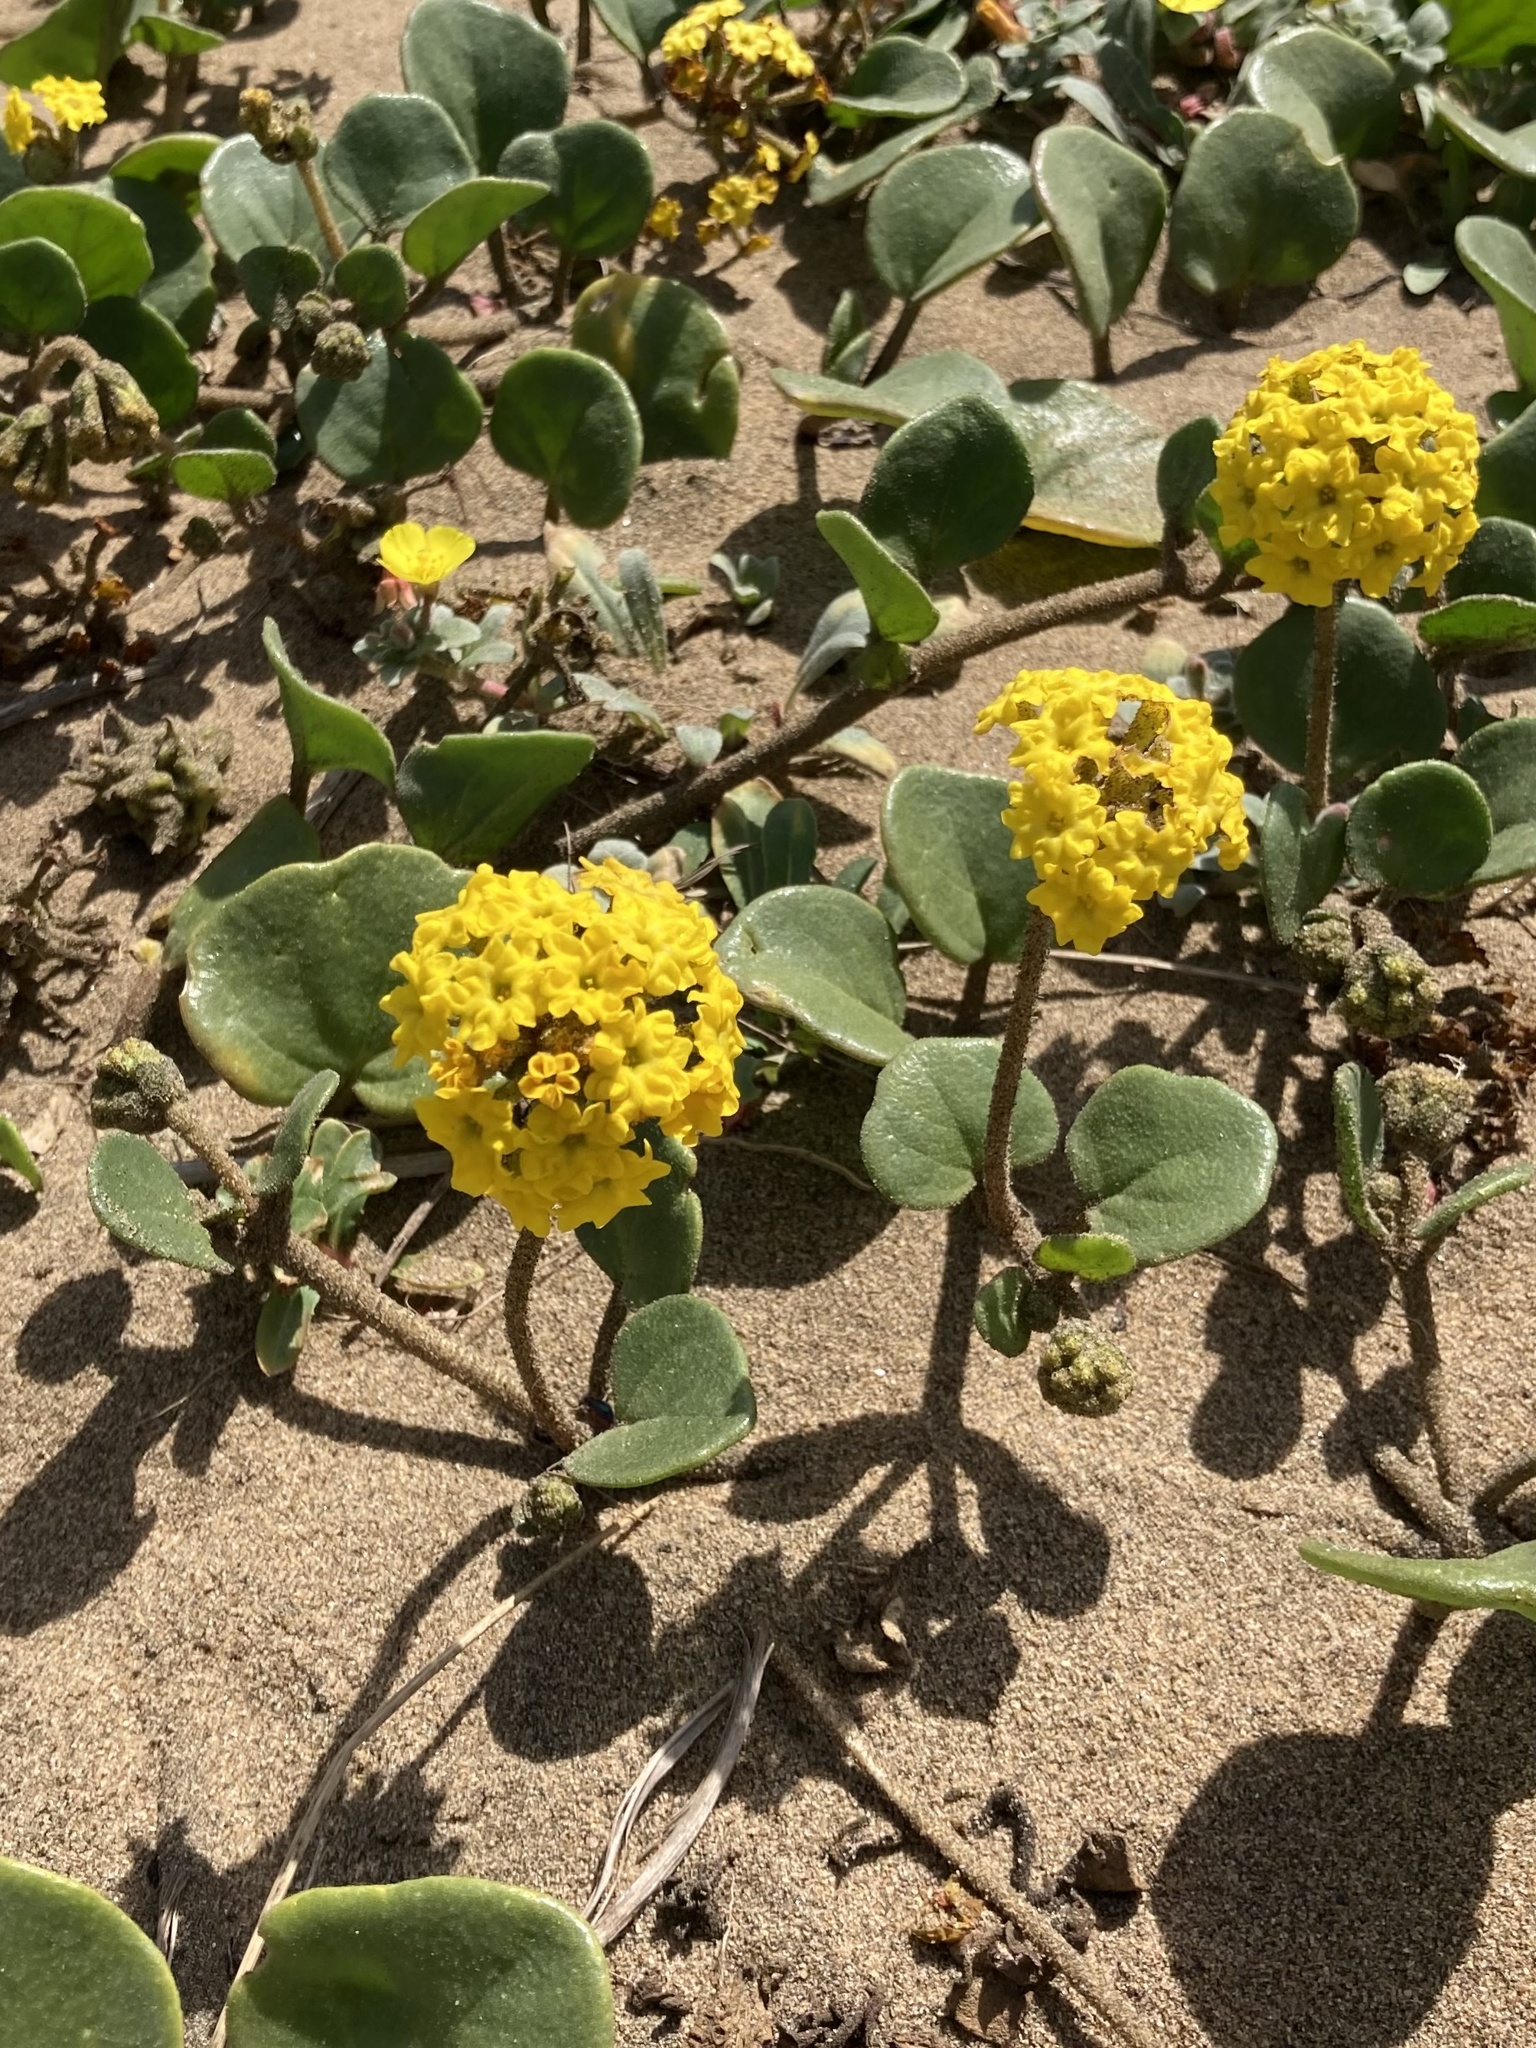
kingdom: Plantae
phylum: Tracheophyta
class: Magnoliopsida
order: Caryophyllales
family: Nyctaginaceae
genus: Abronia
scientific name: Abronia latifolia
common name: Yellow sand-verbena
